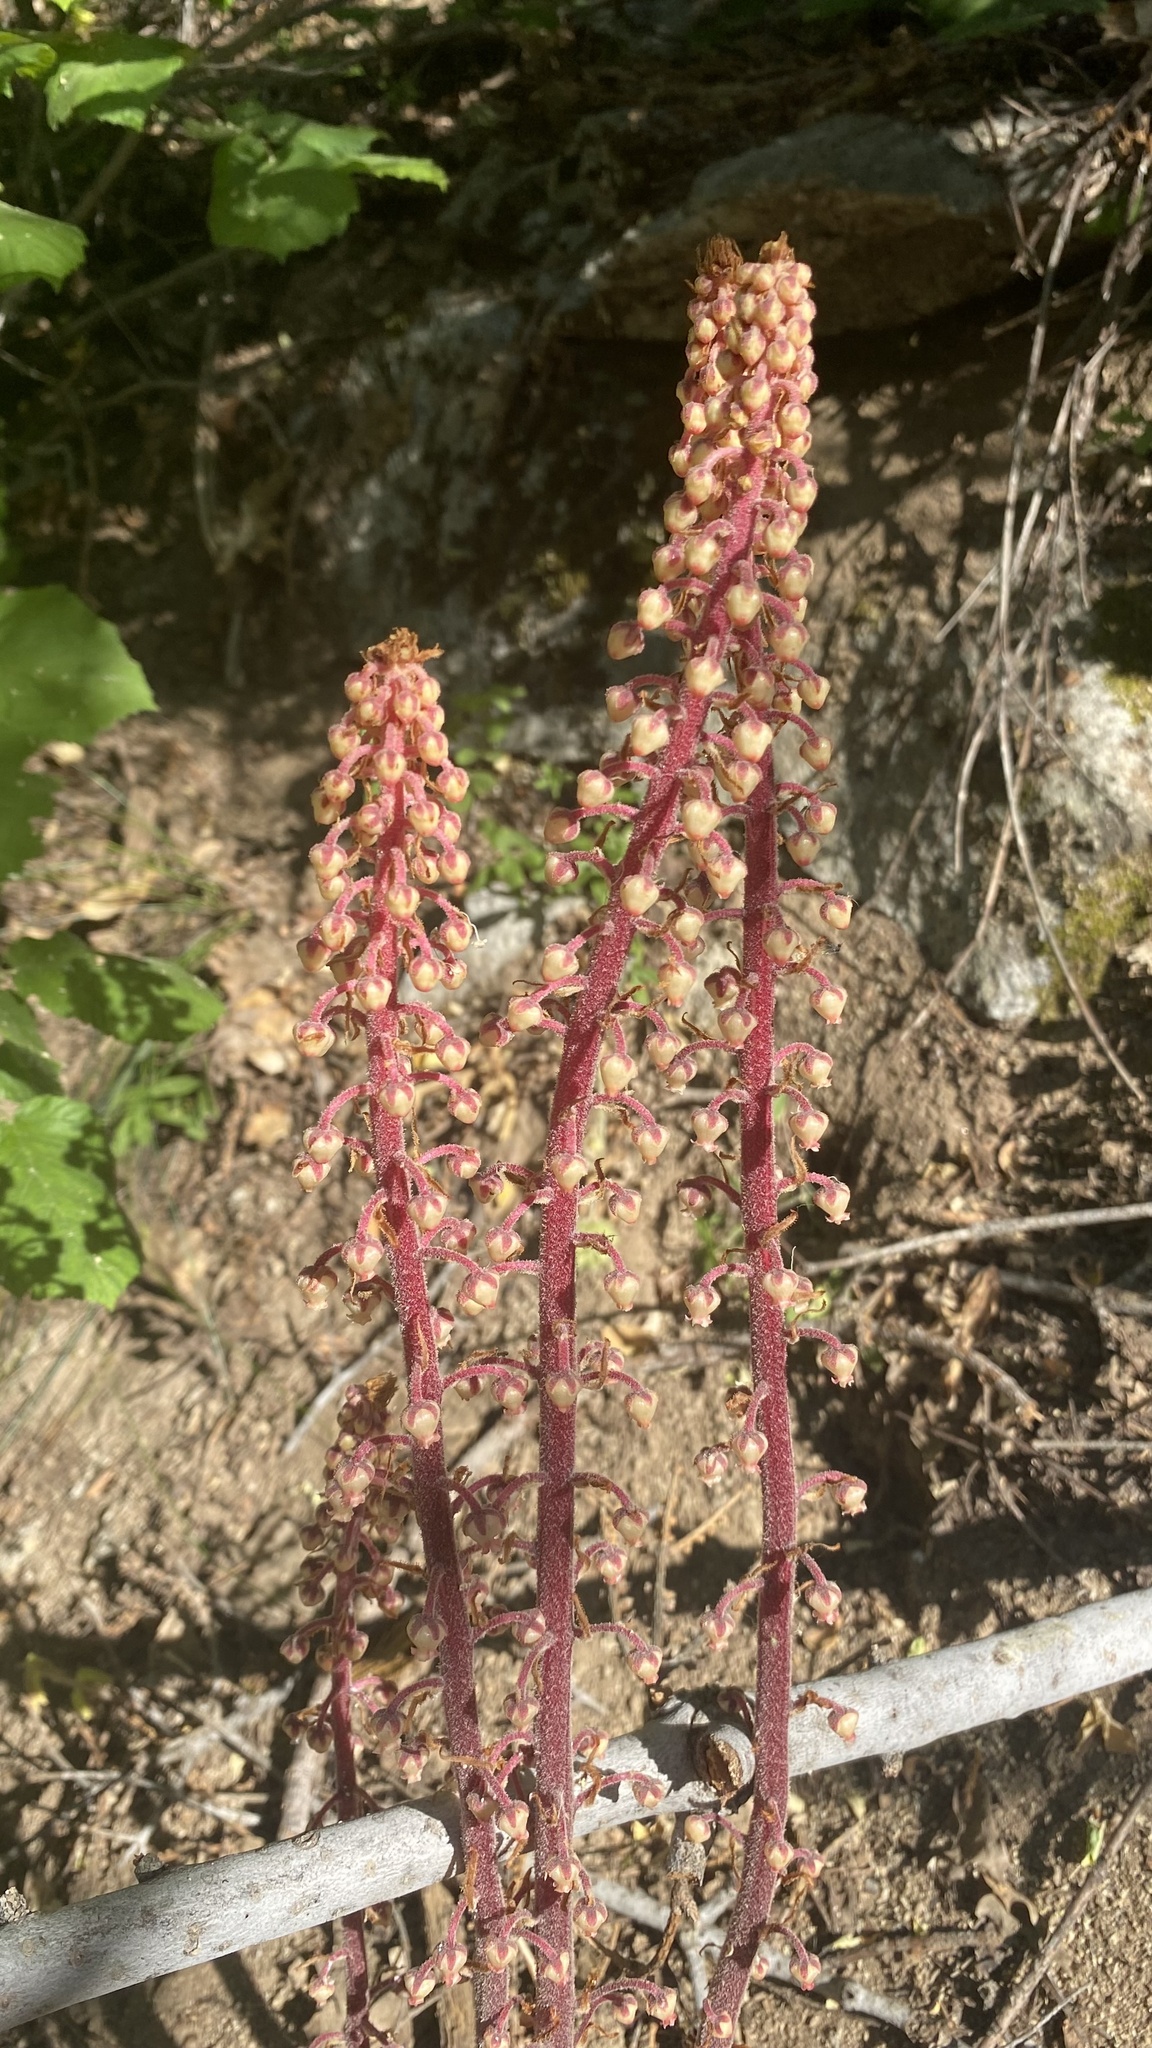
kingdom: Plantae
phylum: Tracheophyta
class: Magnoliopsida
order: Ericales
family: Ericaceae
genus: Pterospora
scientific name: Pterospora andromedea
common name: Giant bird's-nest
